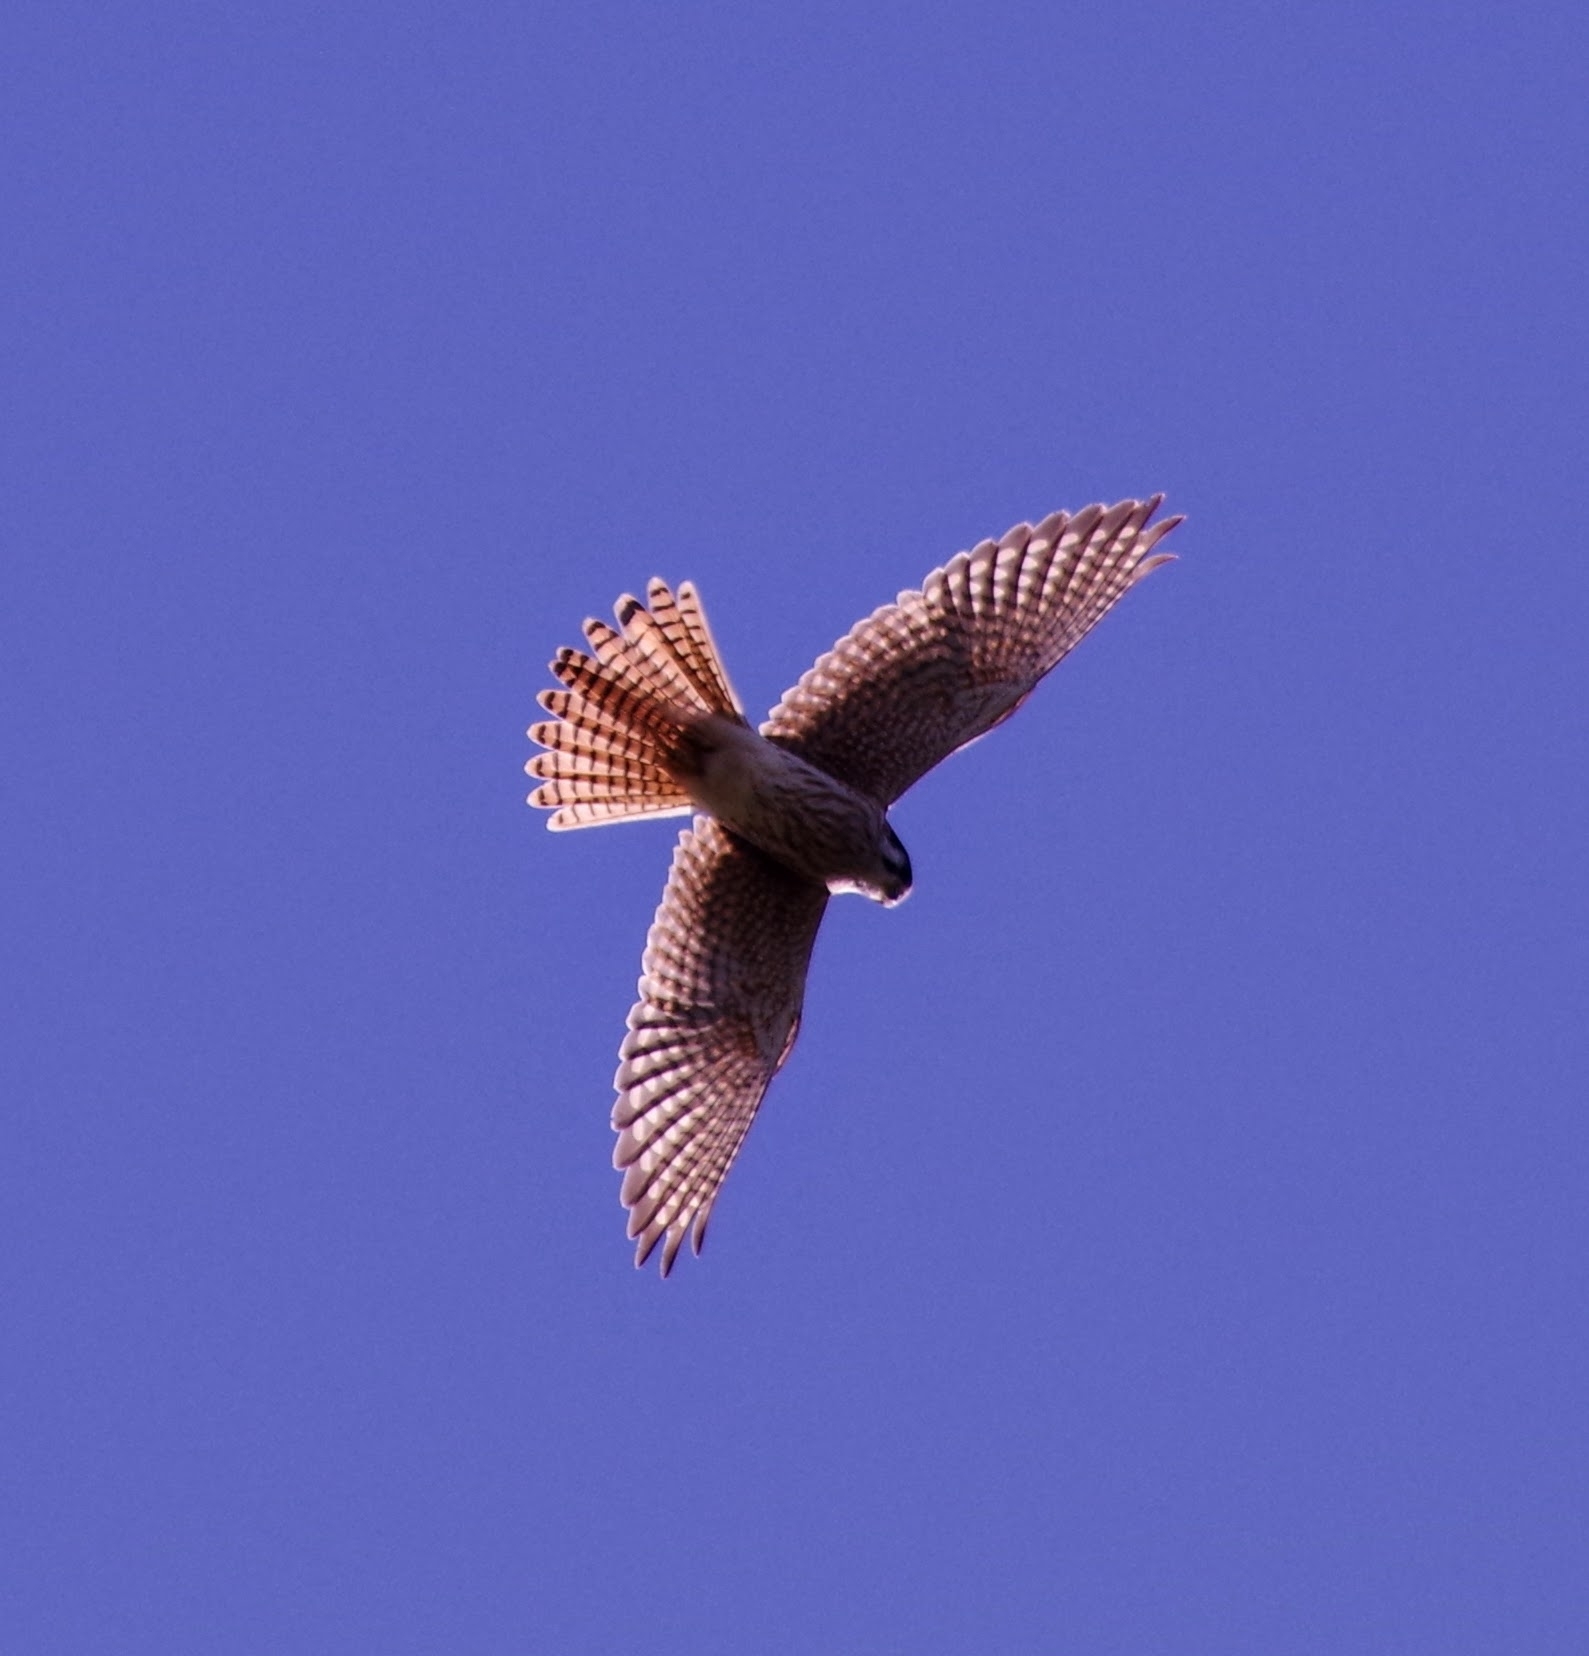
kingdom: Animalia
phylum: Chordata
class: Aves
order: Falconiformes
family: Falconidae
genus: Falco
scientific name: Falco sparverius
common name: American kestrel
